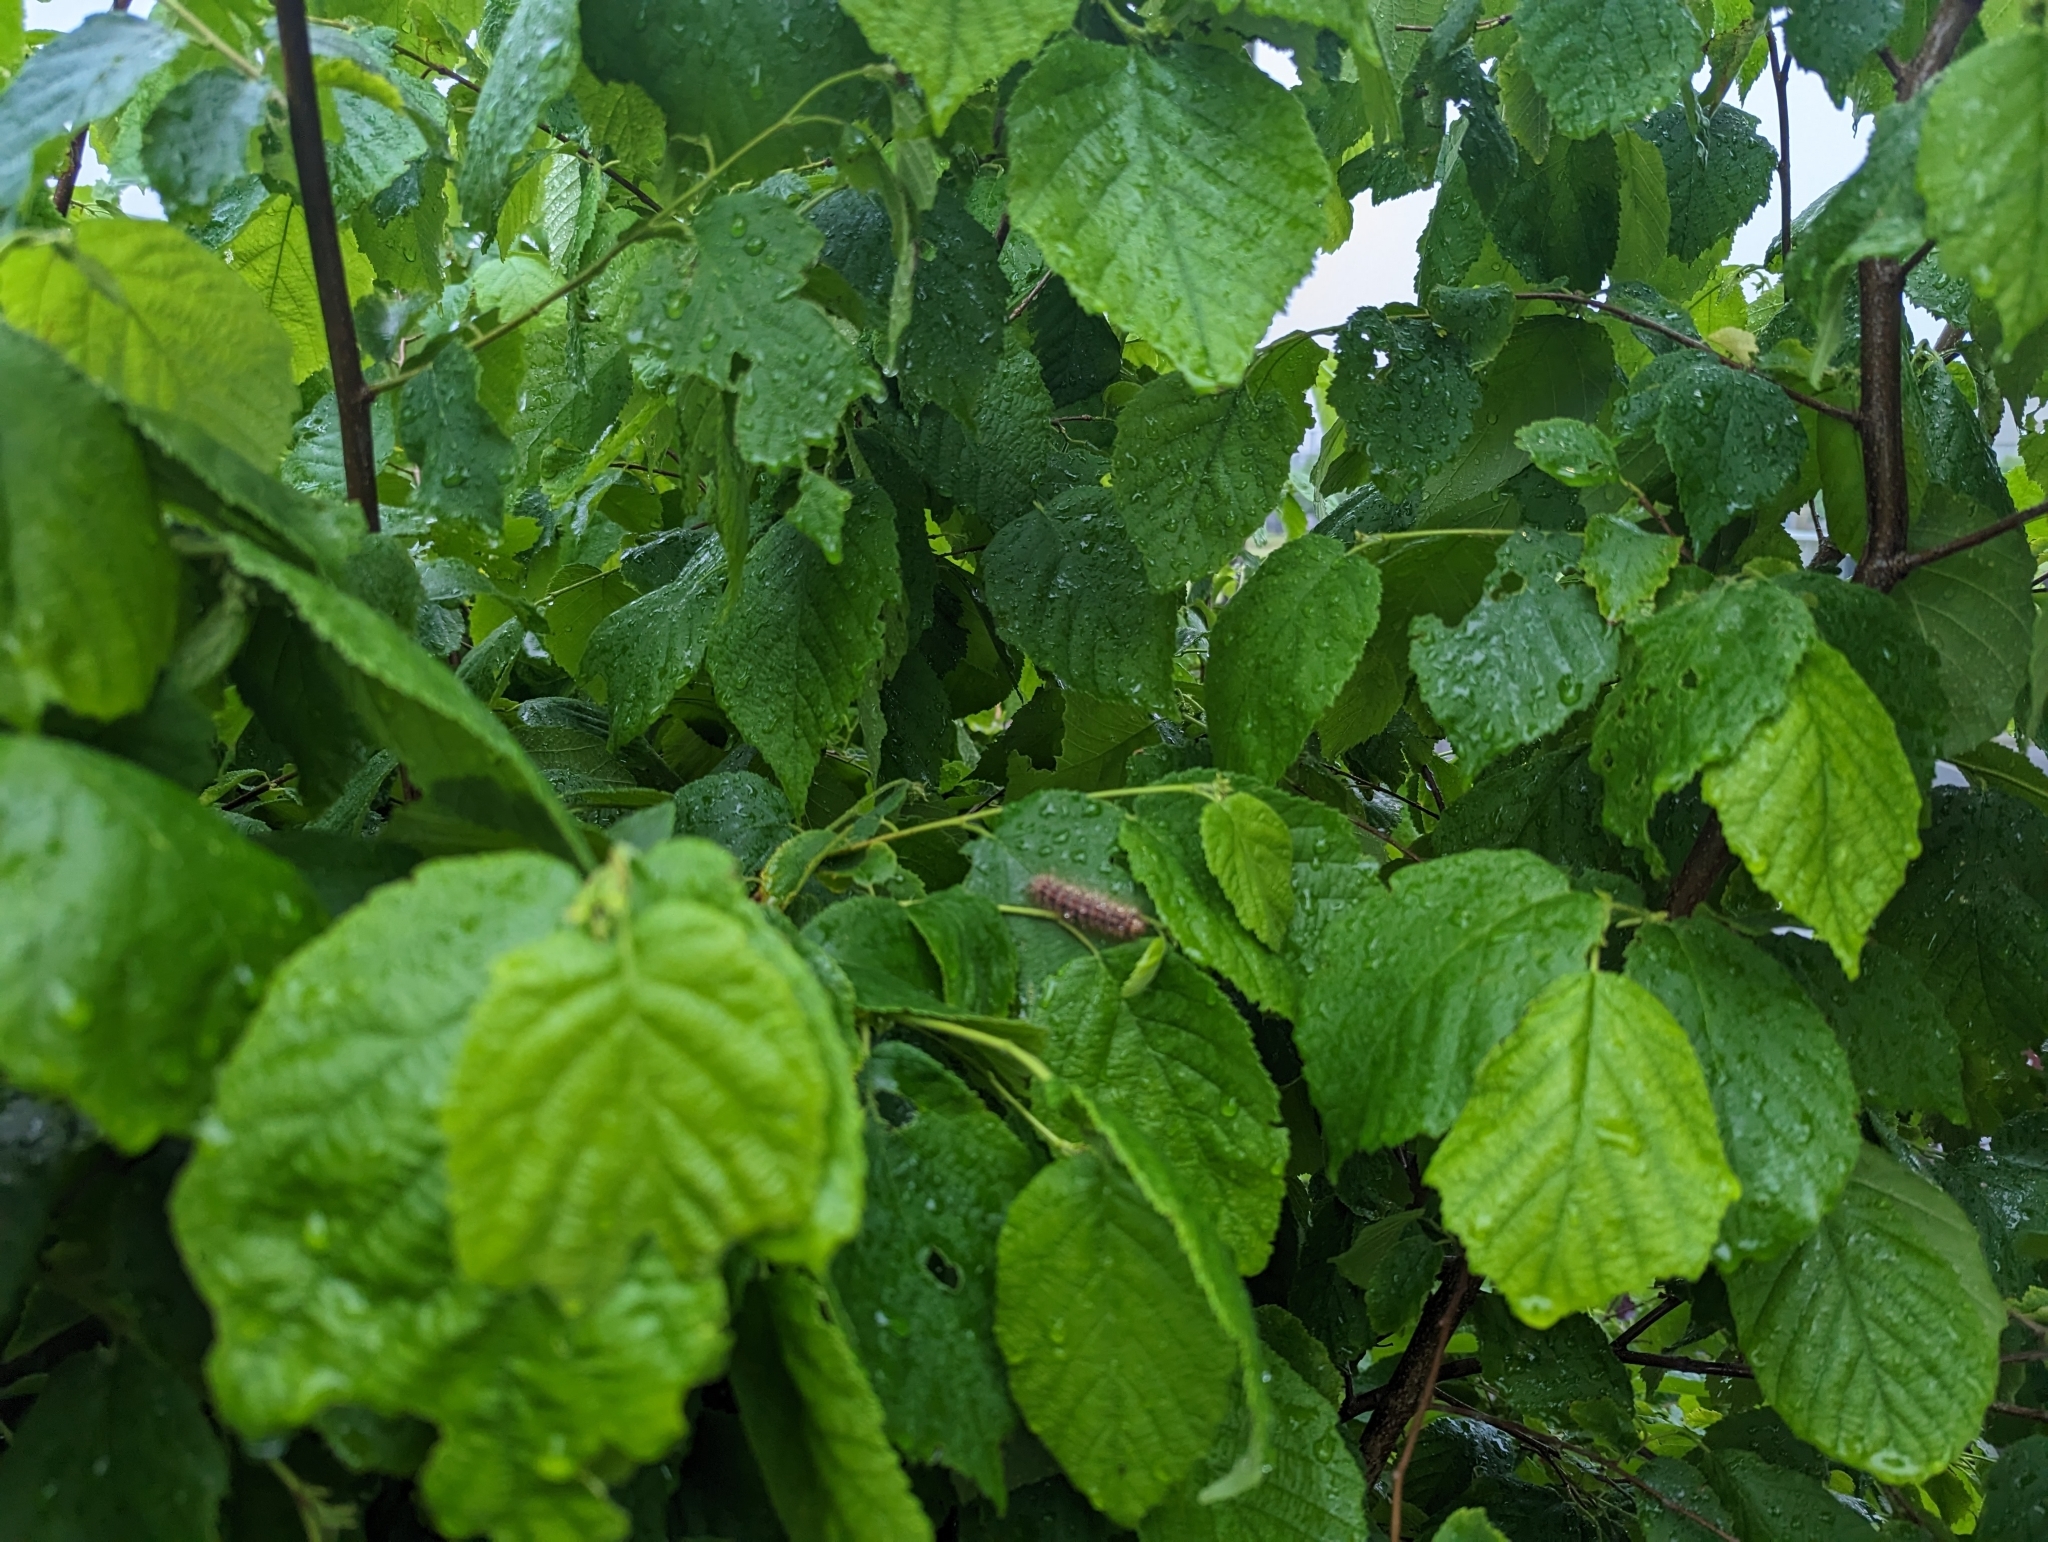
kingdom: Animalia
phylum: Arthropoda
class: Insecta
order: Lepidoptera
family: Erebidae
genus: Lymantria
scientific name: Lymantria dispar
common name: Gypsy moth
